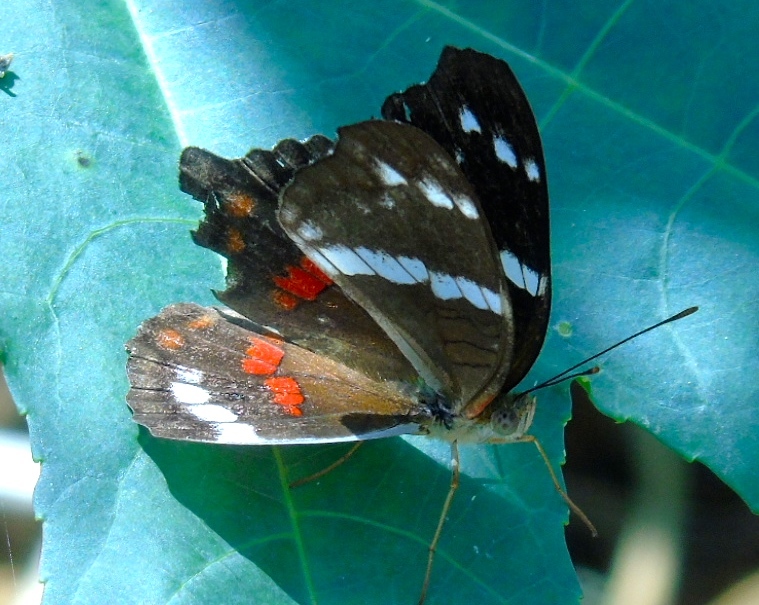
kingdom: Animalia
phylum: Arthropoda
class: Insecta
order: Lepidoptera
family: Nymphalidae
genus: Anartia
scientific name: Anartia fatima
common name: Banded peacock
